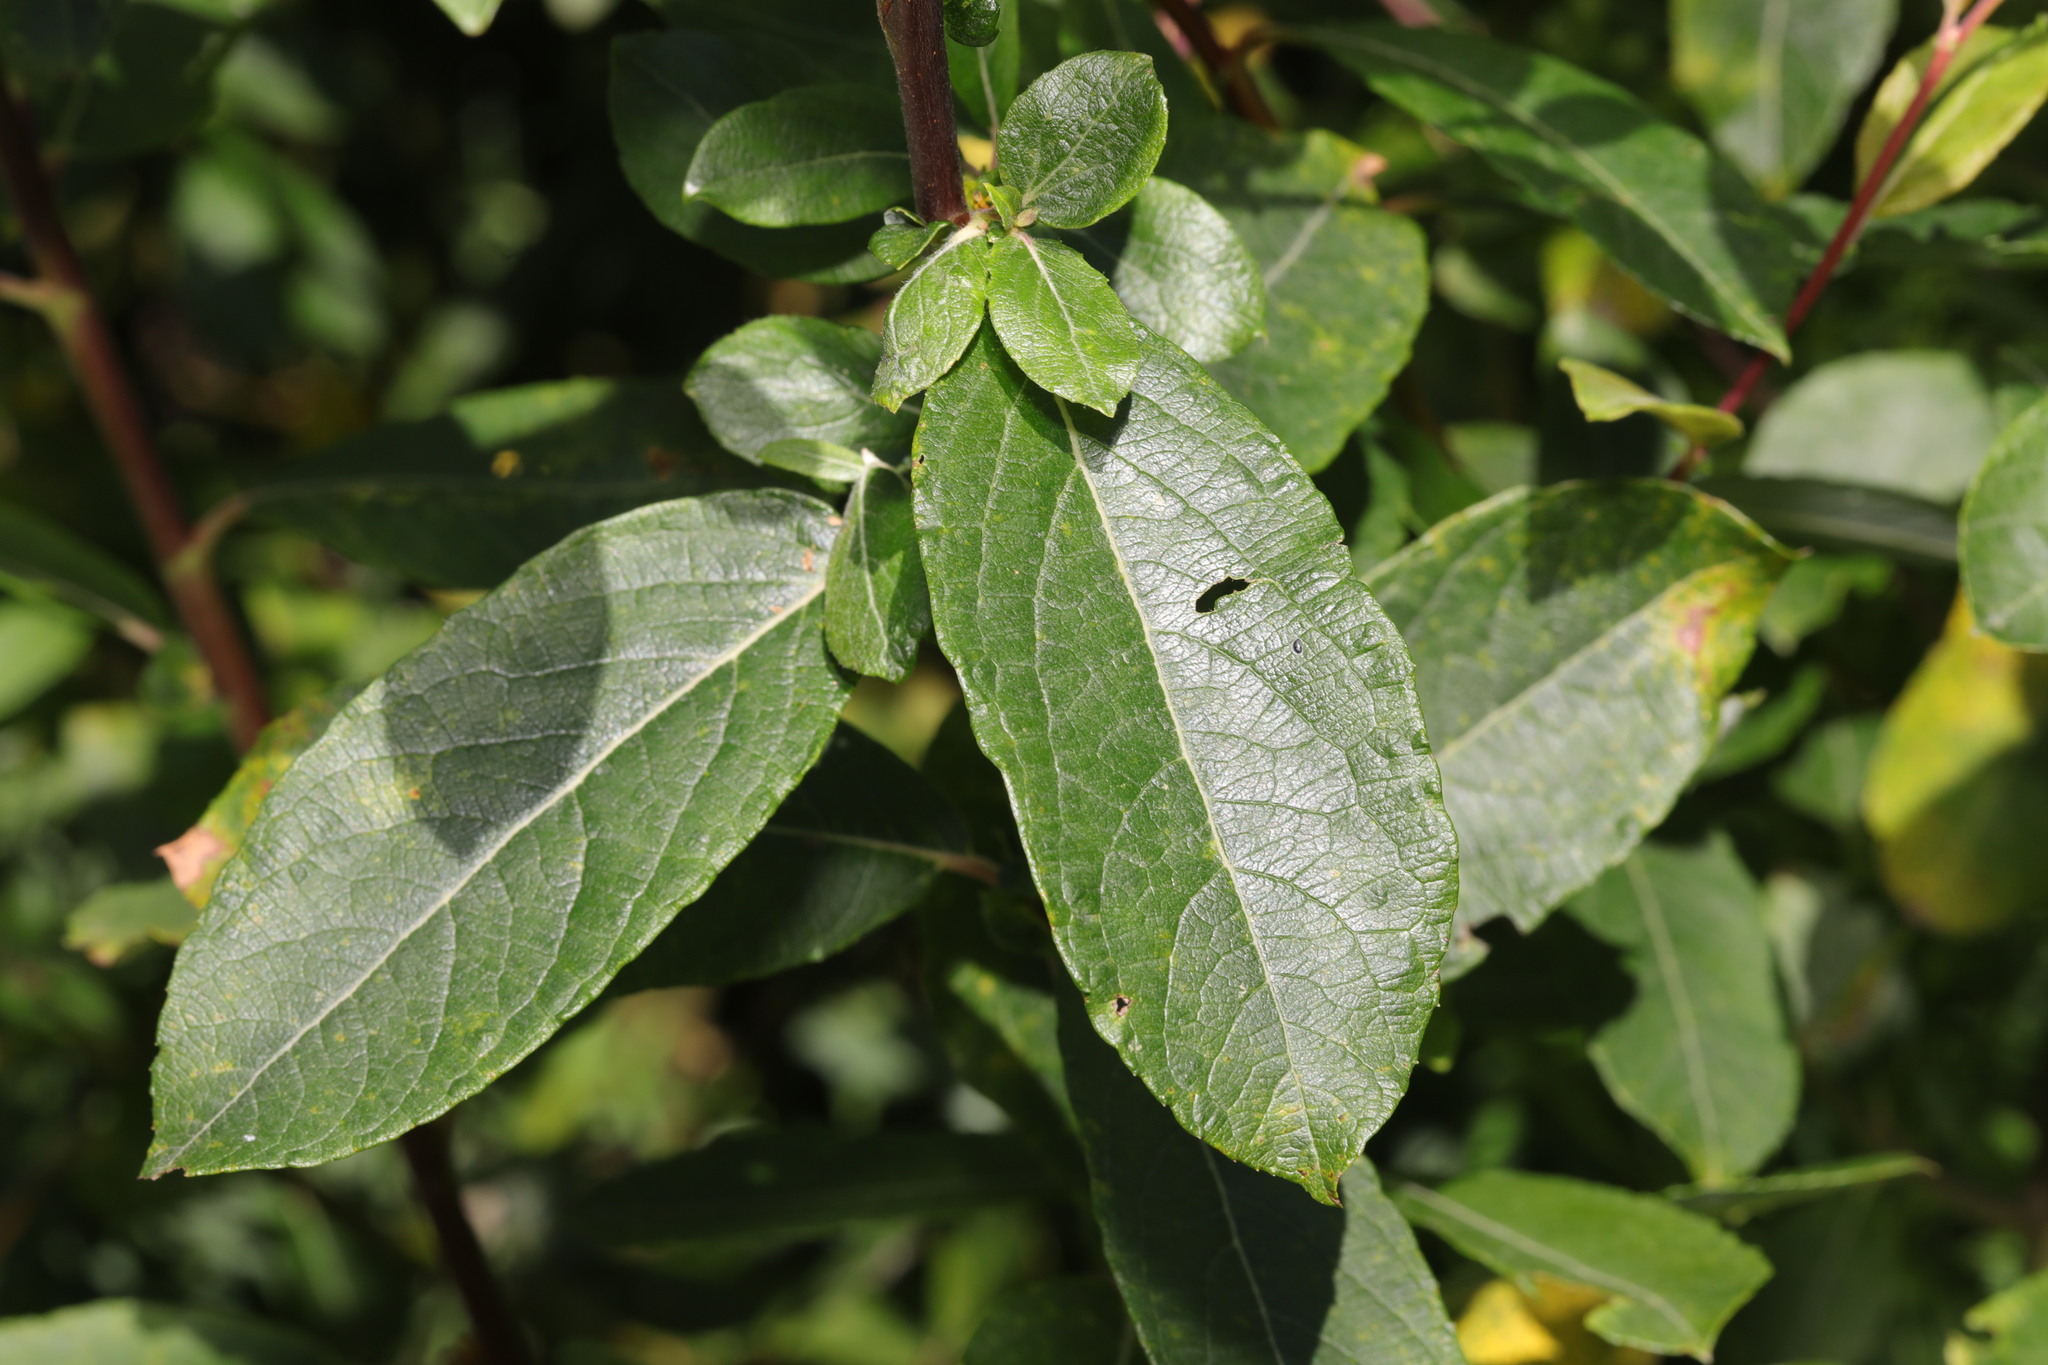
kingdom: Plantae
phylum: Tracheophyta
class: Magnoliopsida
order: Malpighiales
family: Salicaceae
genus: Salix
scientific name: Salix cinerea
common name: Common sallow
